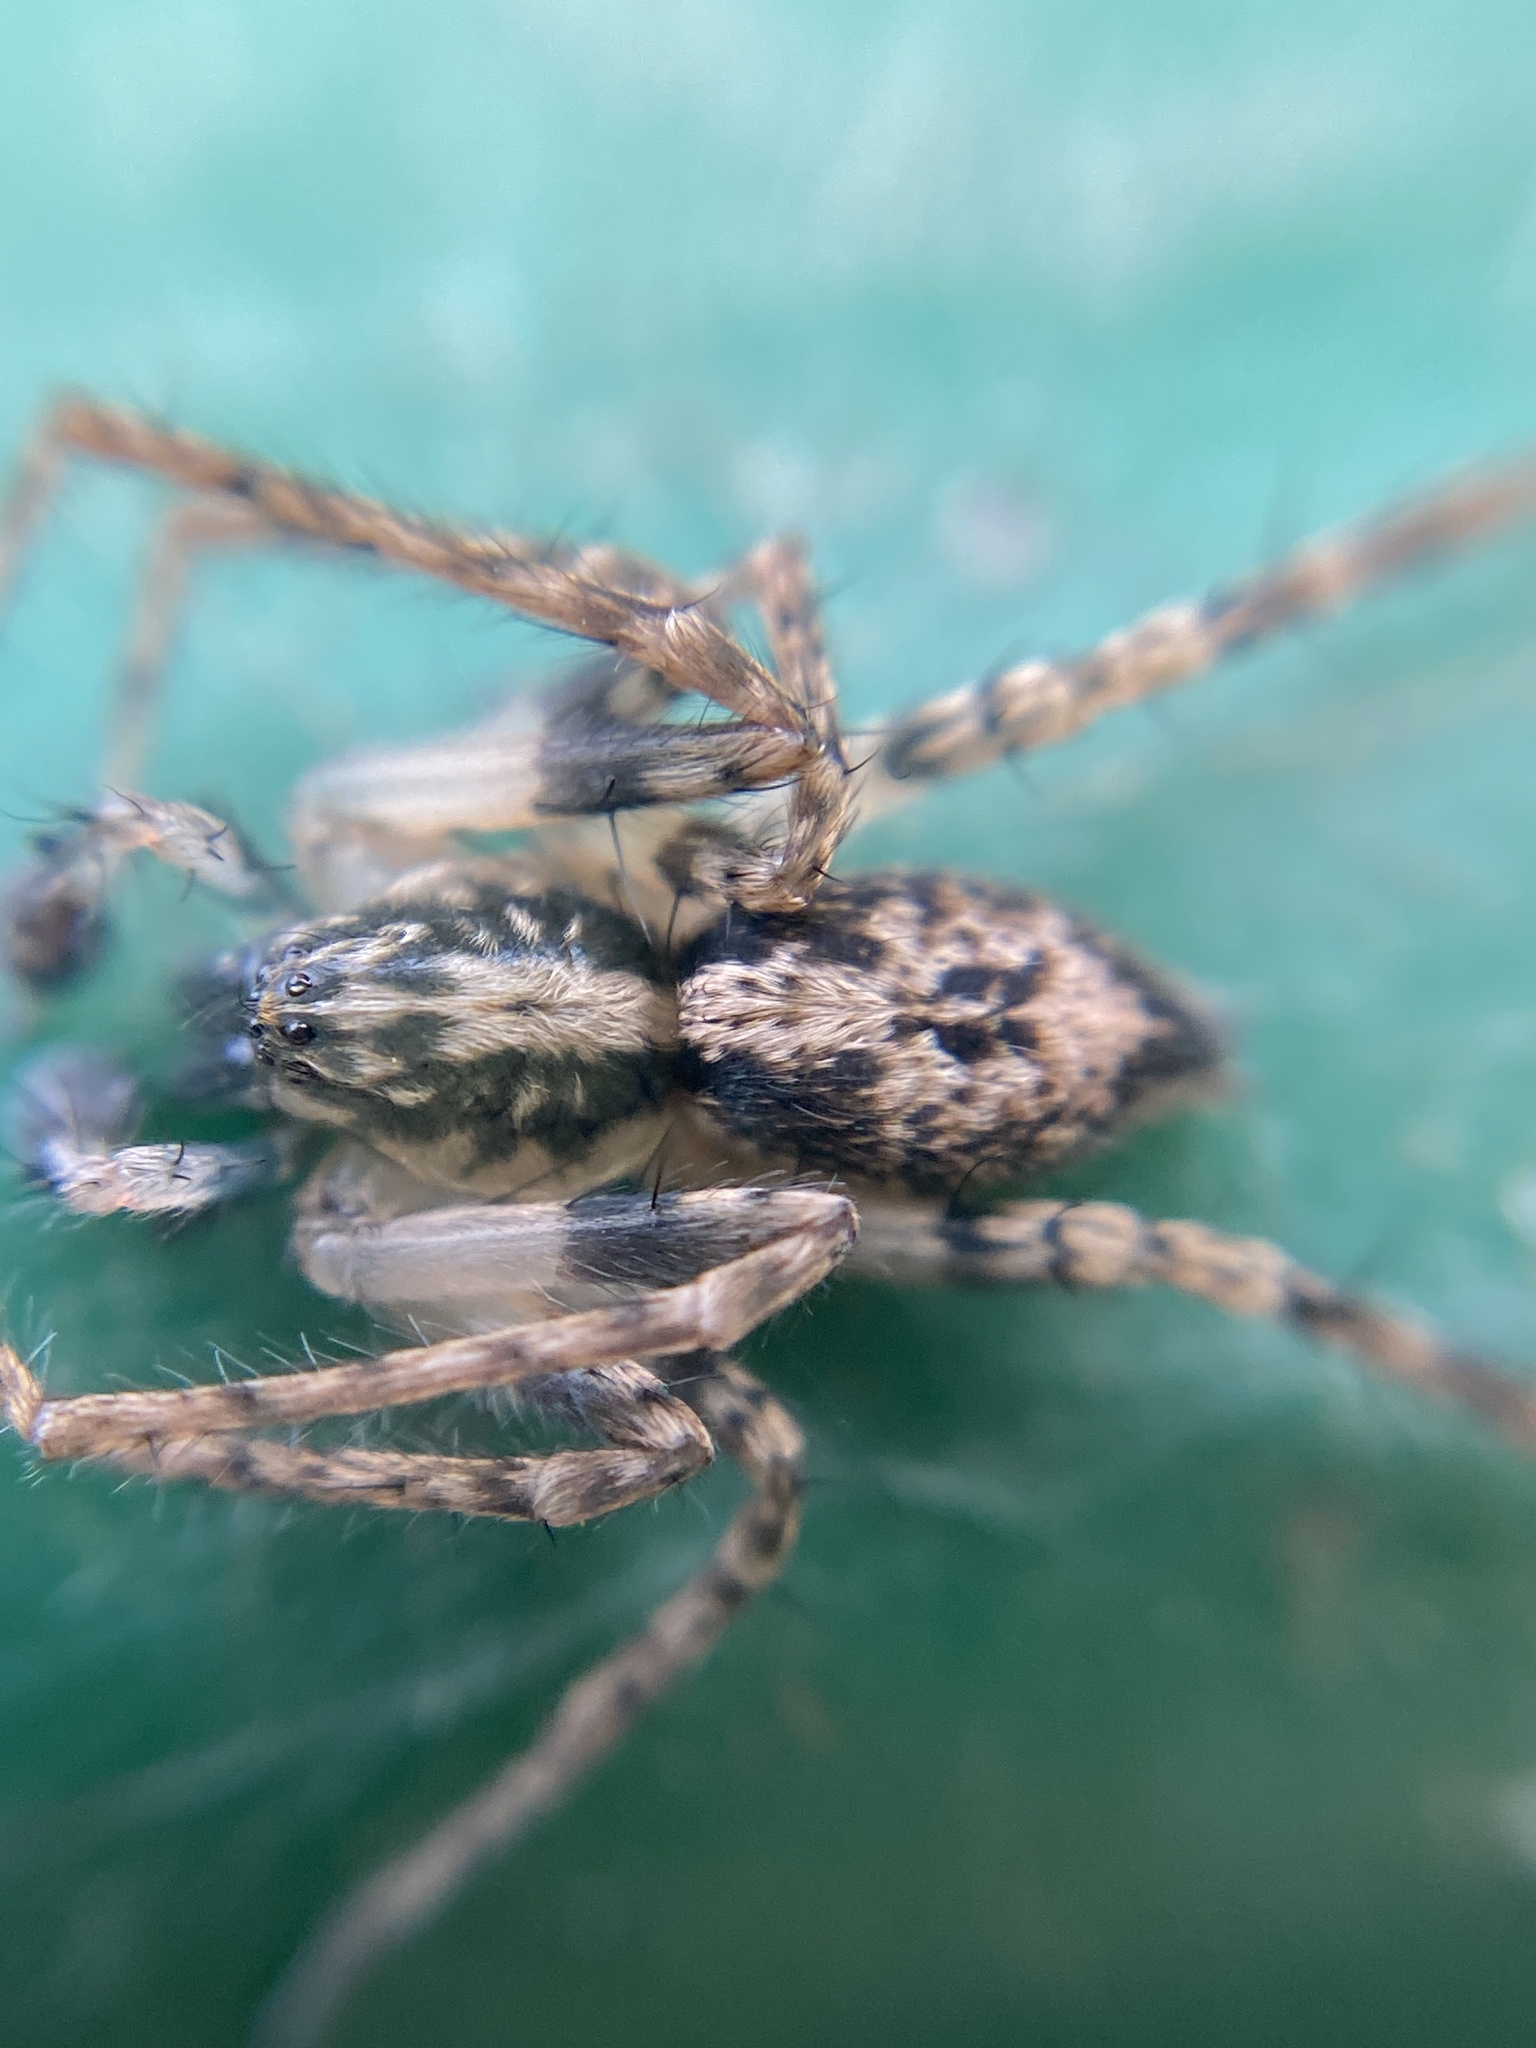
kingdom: Animalia
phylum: Arthropoda
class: Arachnida
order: Araneae
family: Anyphaenidae
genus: Anyphaena
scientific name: Anyphaena accentuata
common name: Buzzing spider
